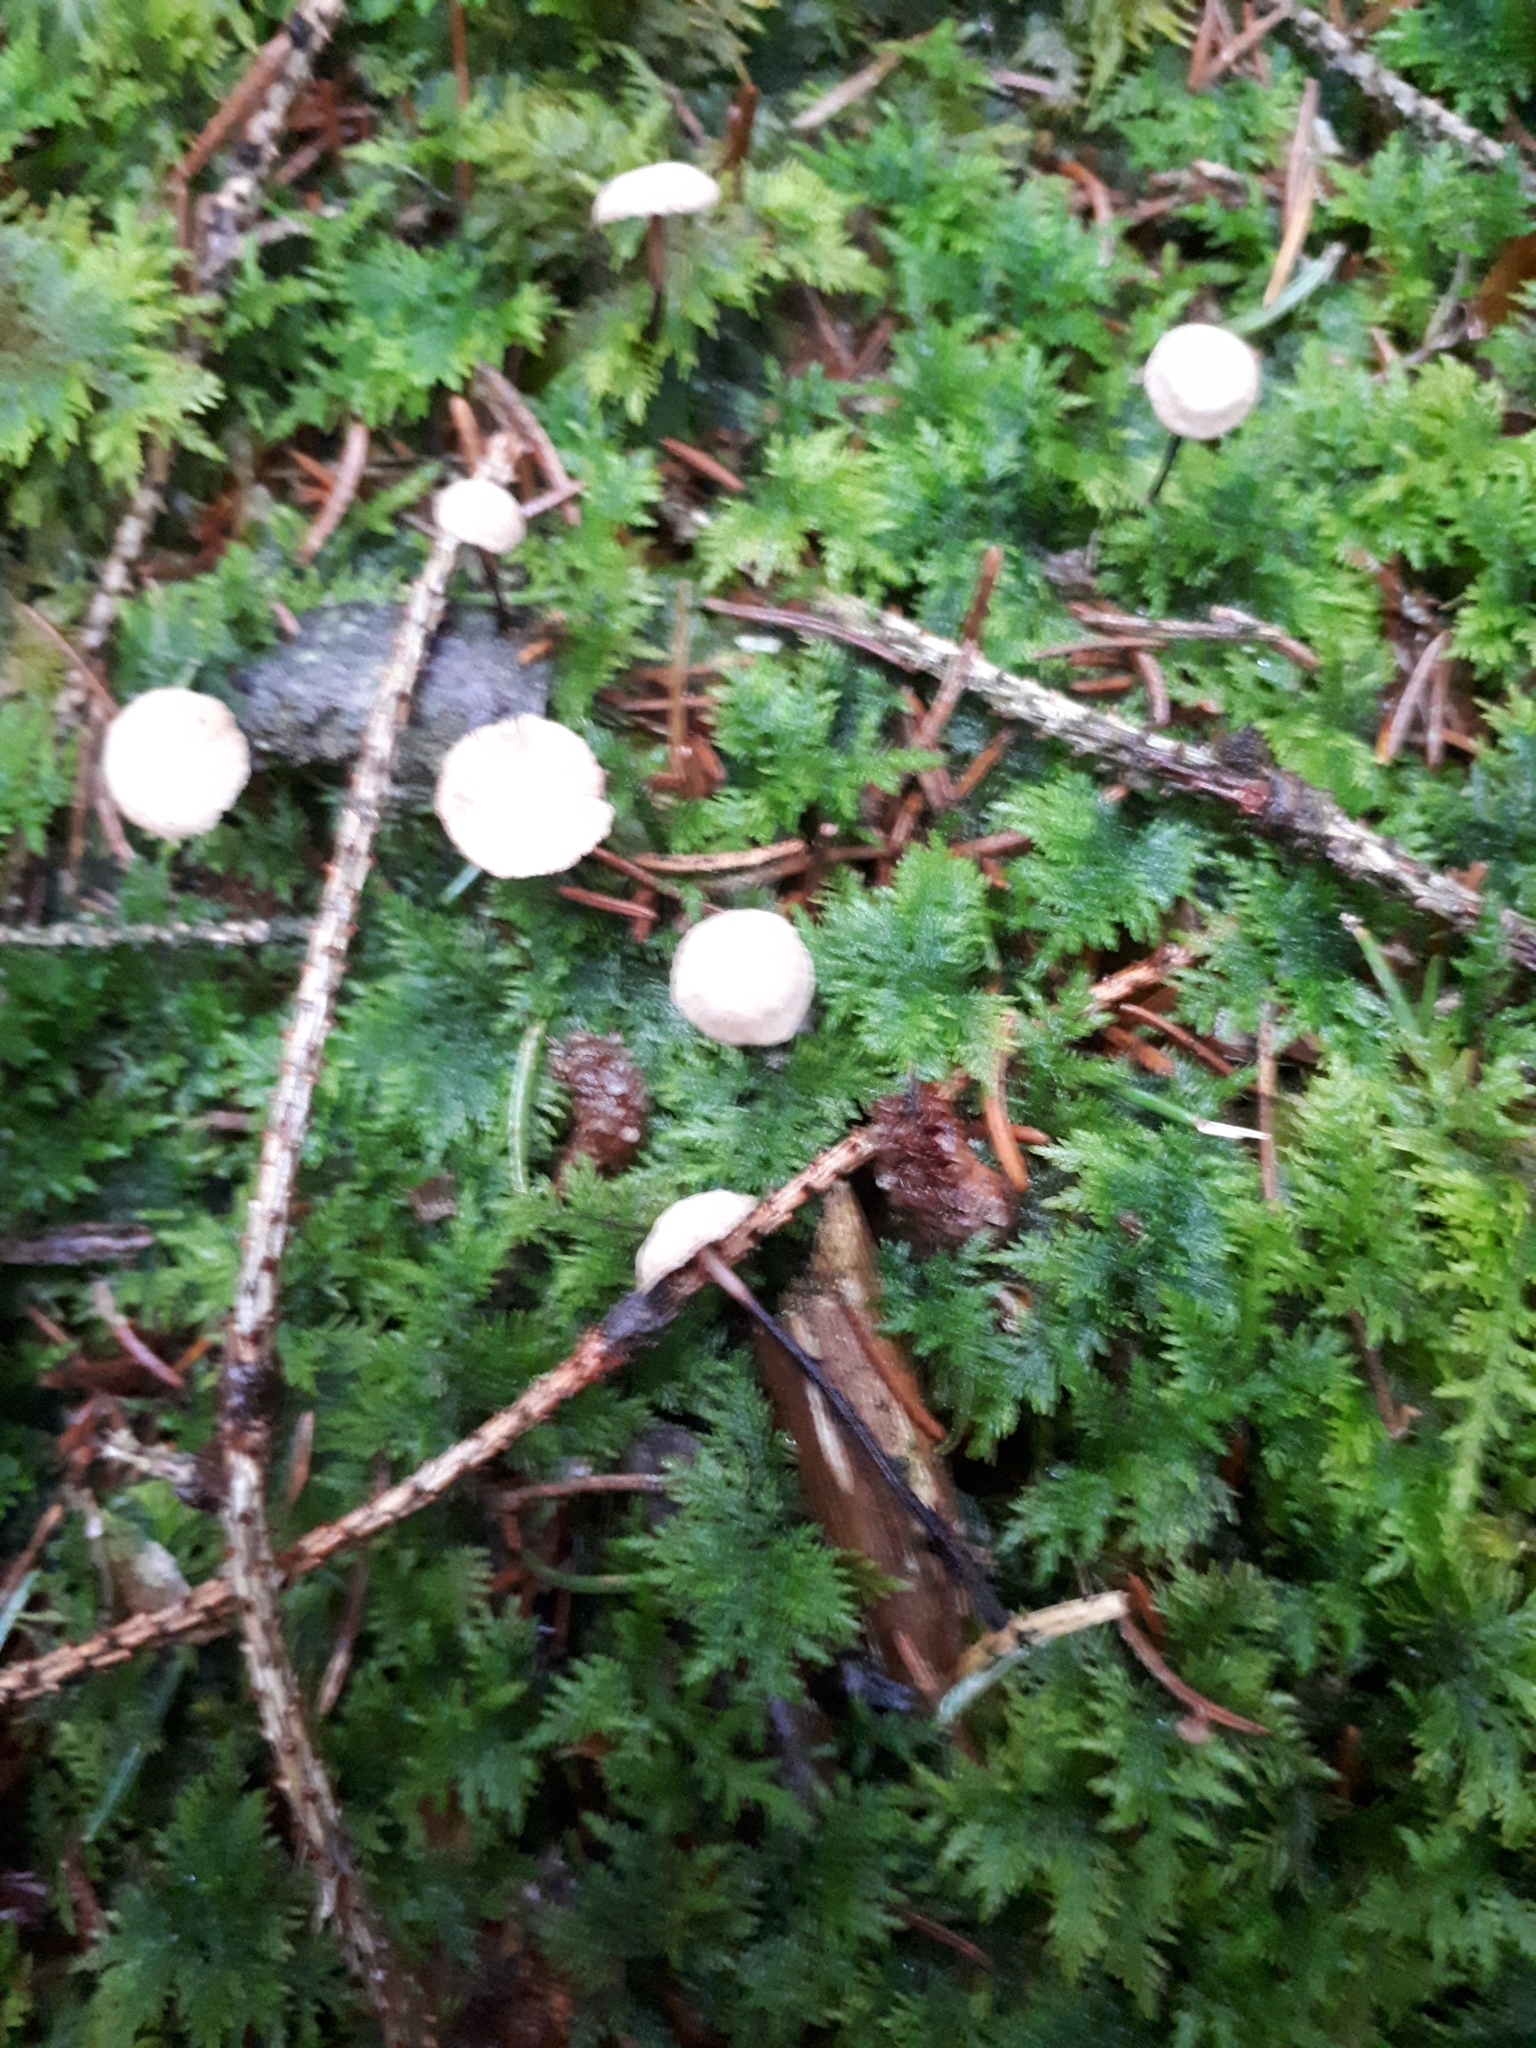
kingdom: Fungi
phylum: Basidiomycota
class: Agaricomycetes
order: Agaricales
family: Omphalotaceae
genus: Paragymnopus
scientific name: Paragymnopus perforans
